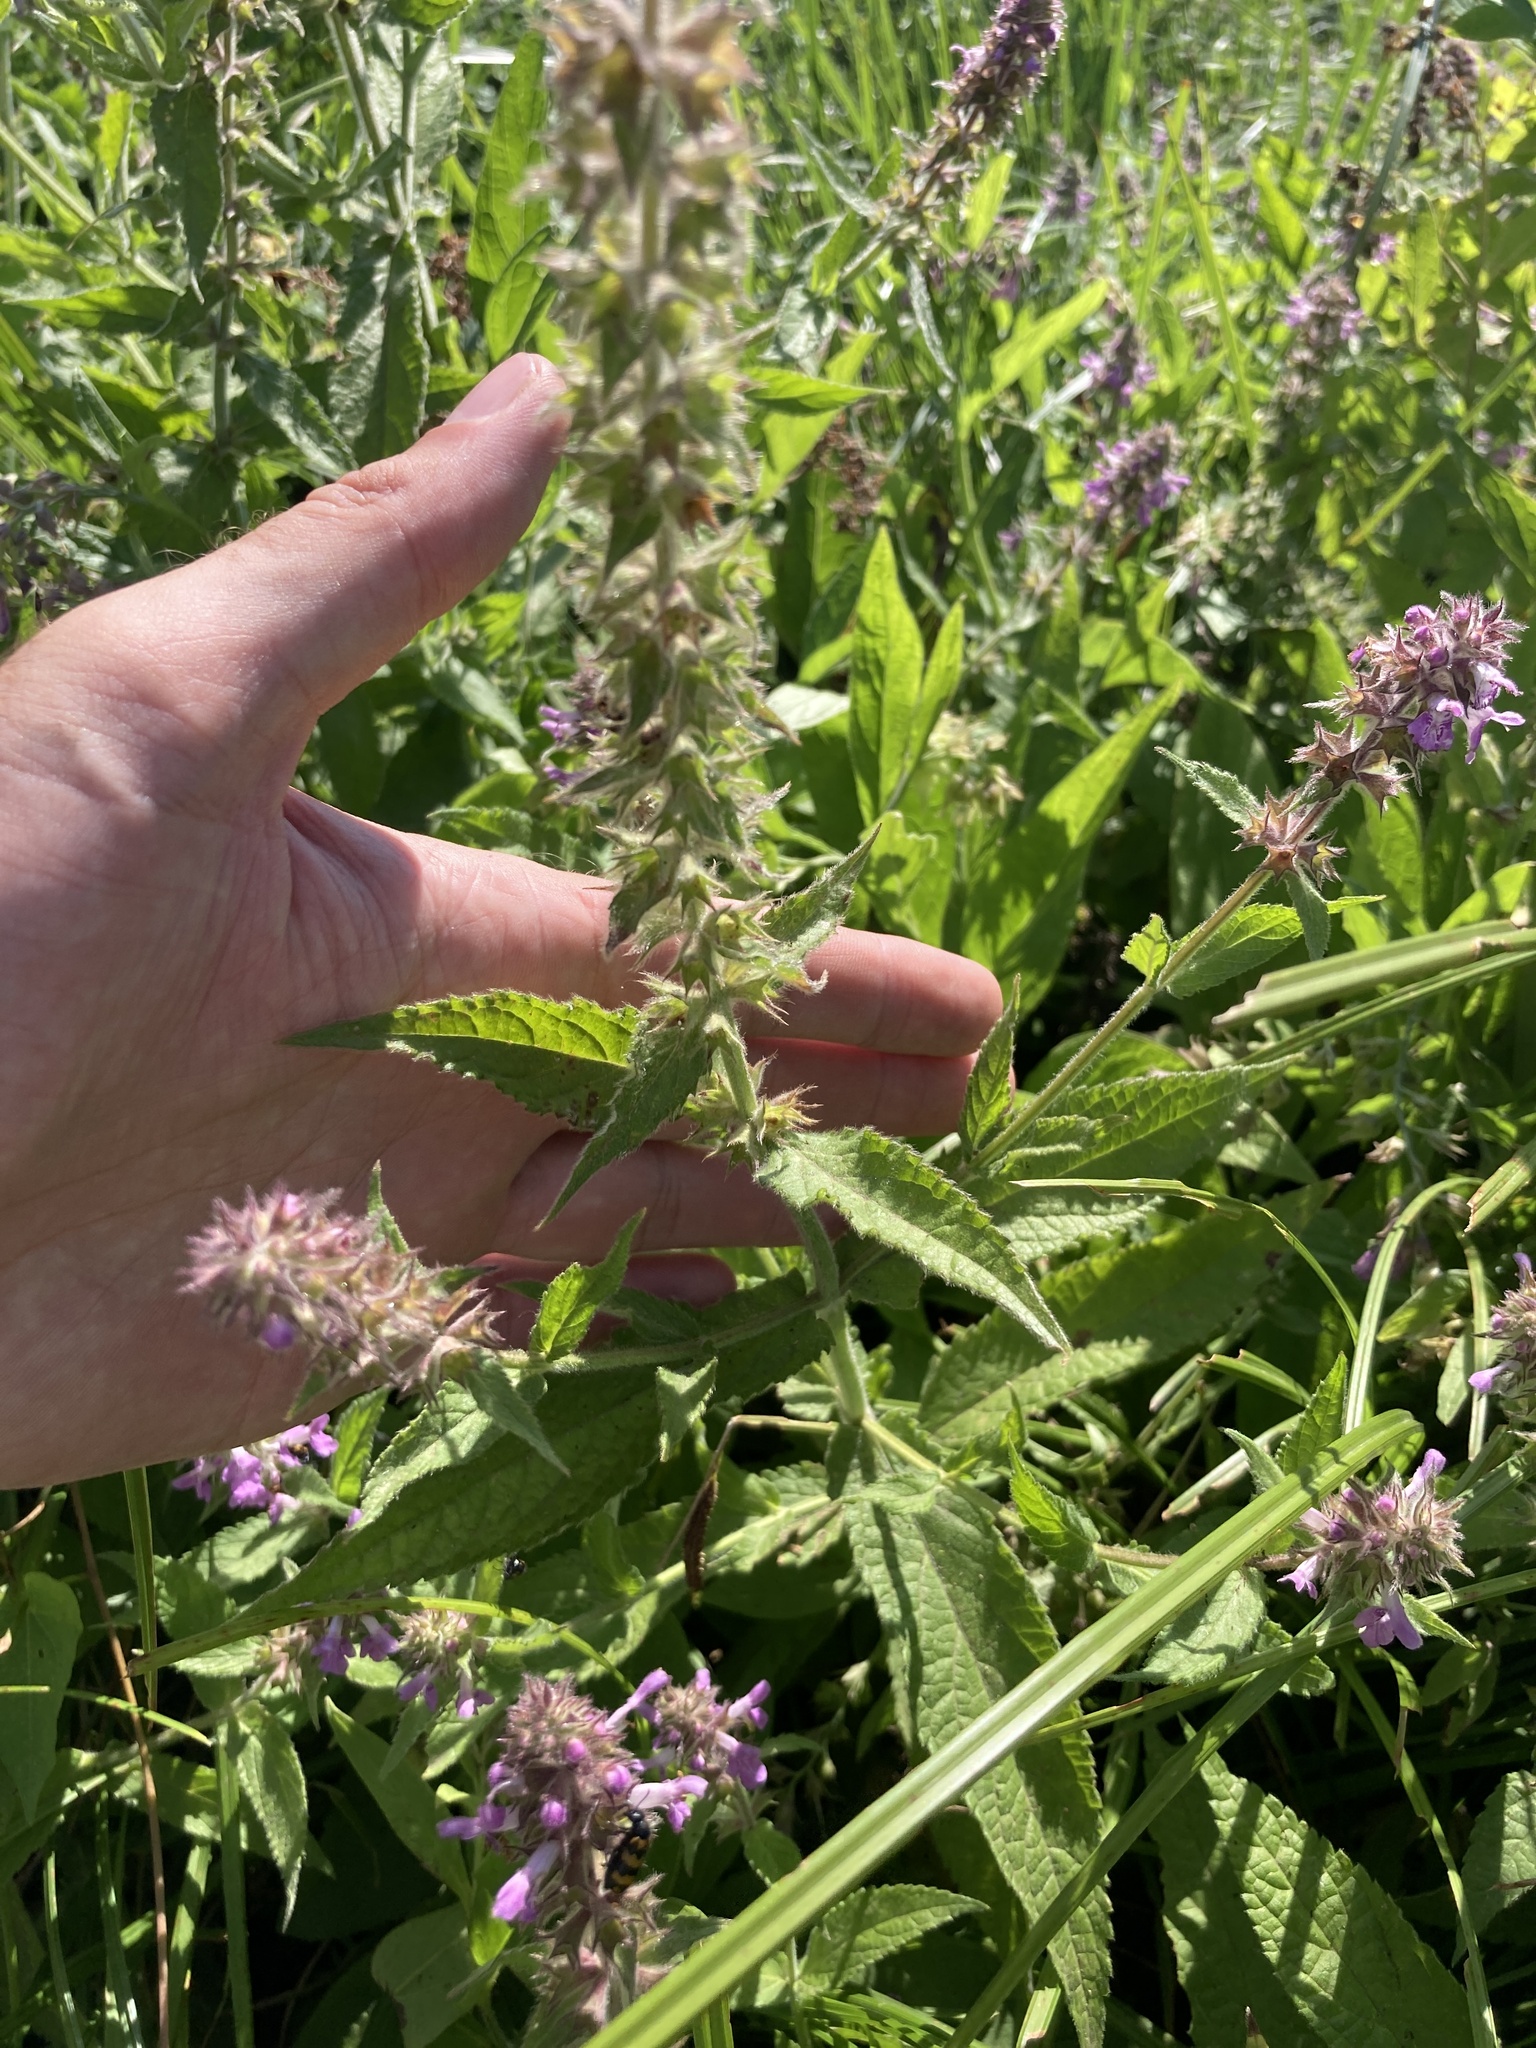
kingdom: Plantae
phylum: Tracheophyta
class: Magnoliopsida
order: Lamiales
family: Lamiaceae
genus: Stachys
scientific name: Stachys palustris
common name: Marsh woundwort
